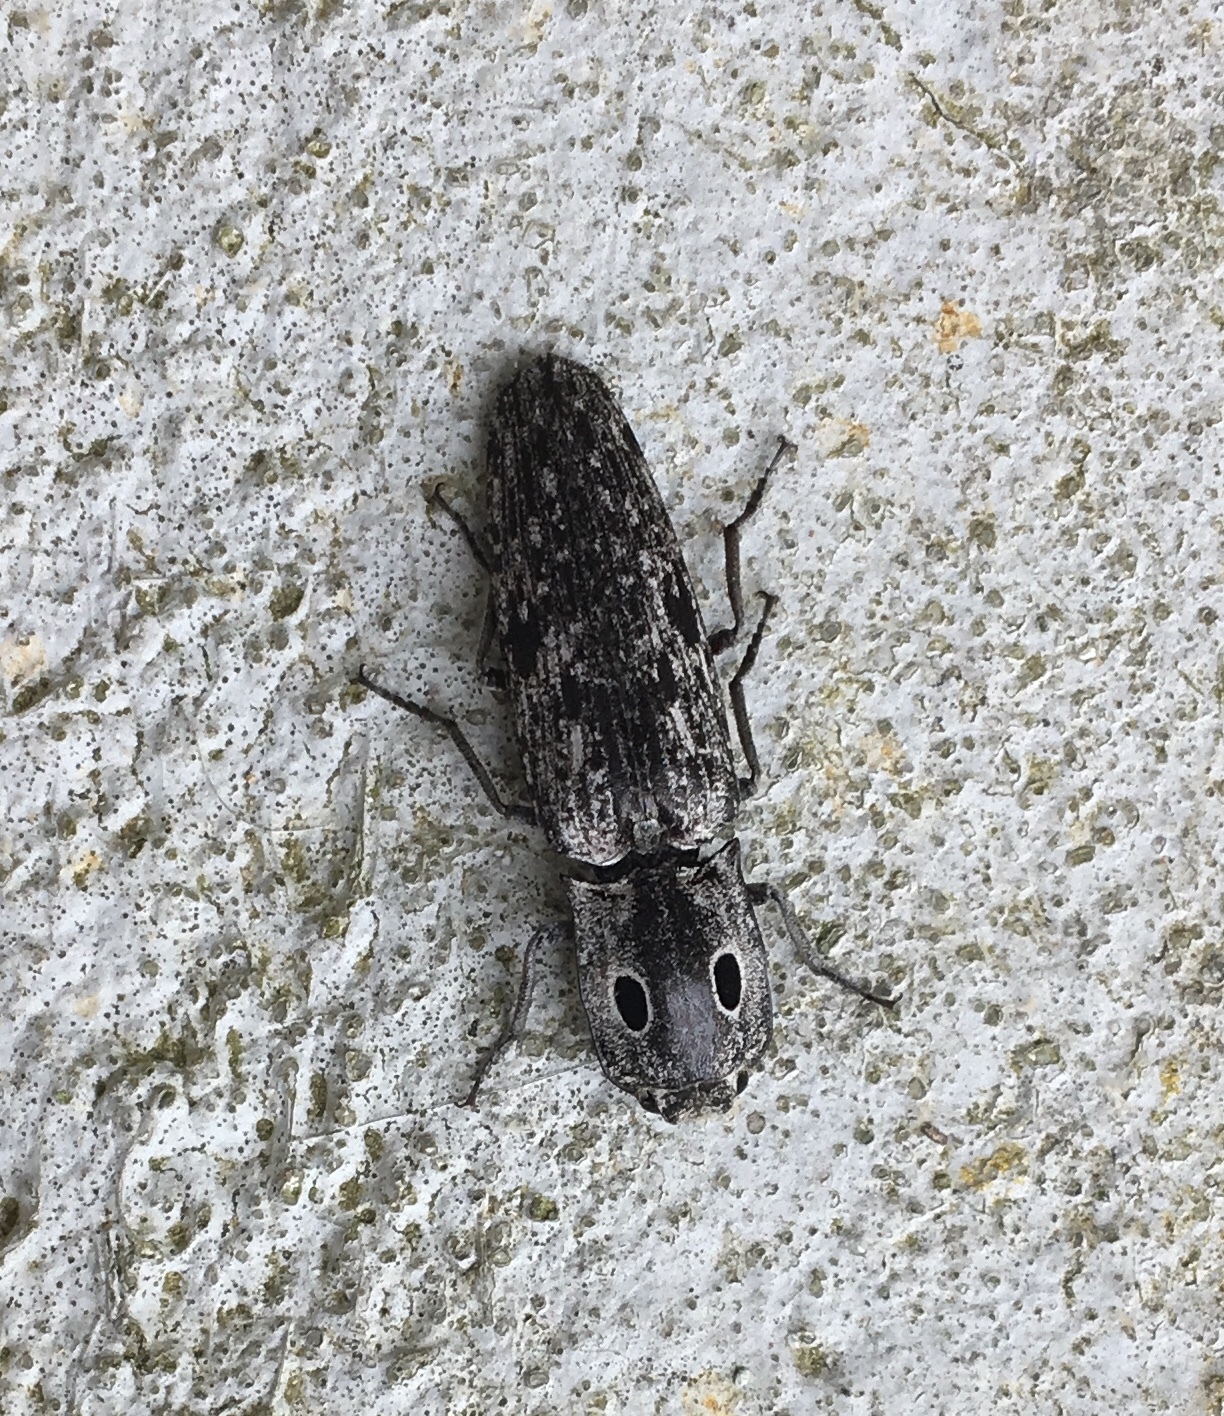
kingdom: Animalia
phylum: Arthropoda
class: Insecta
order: Coleoptera
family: Elateridae
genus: Alaus
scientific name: Alaus myops
